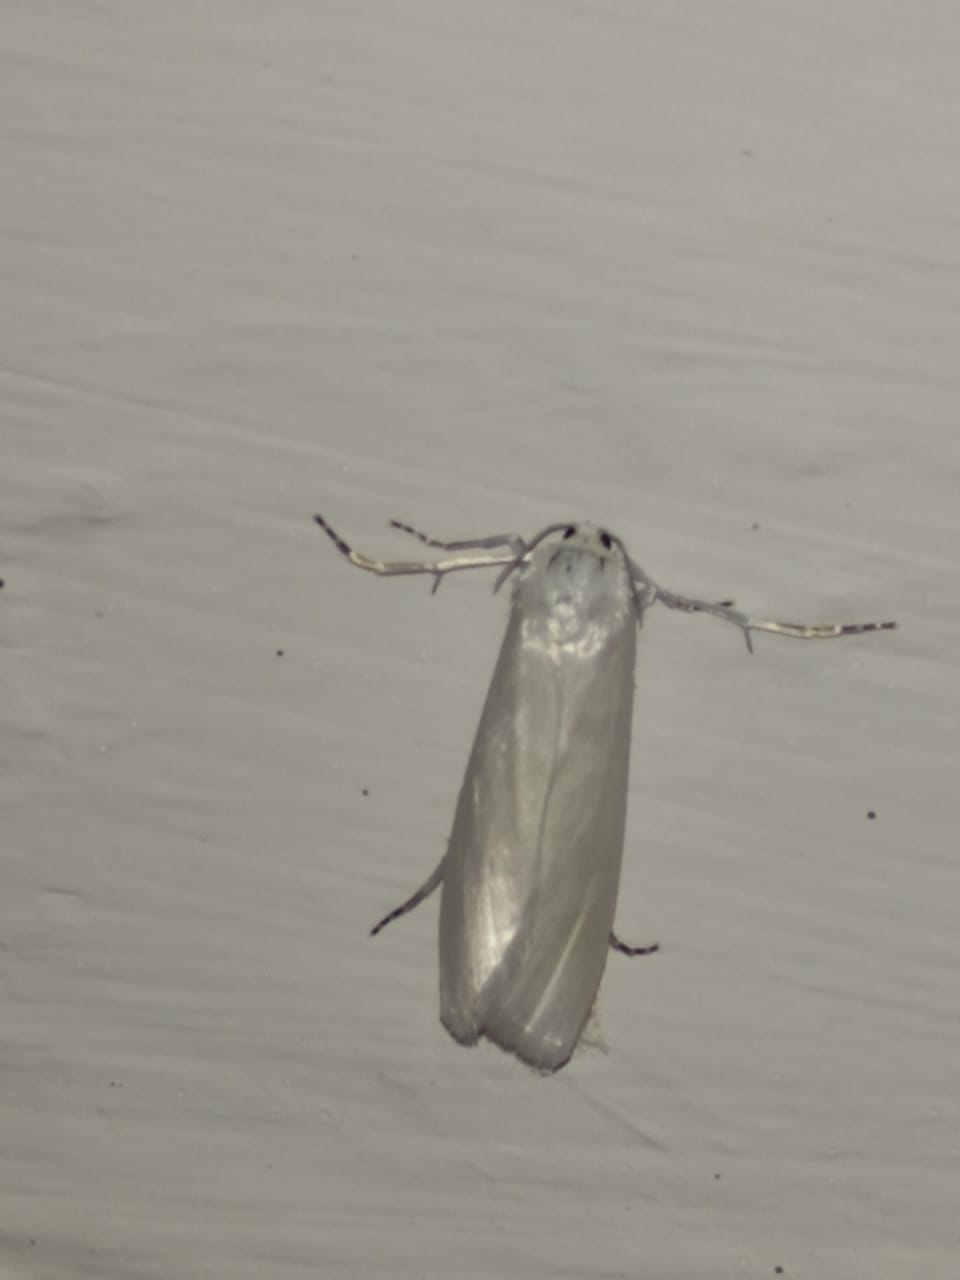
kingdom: Animalia
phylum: Arthropoda
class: Insecta
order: Lepidoptera
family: Crambidae
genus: Scirpophaga
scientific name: Scirpophaga praelata
